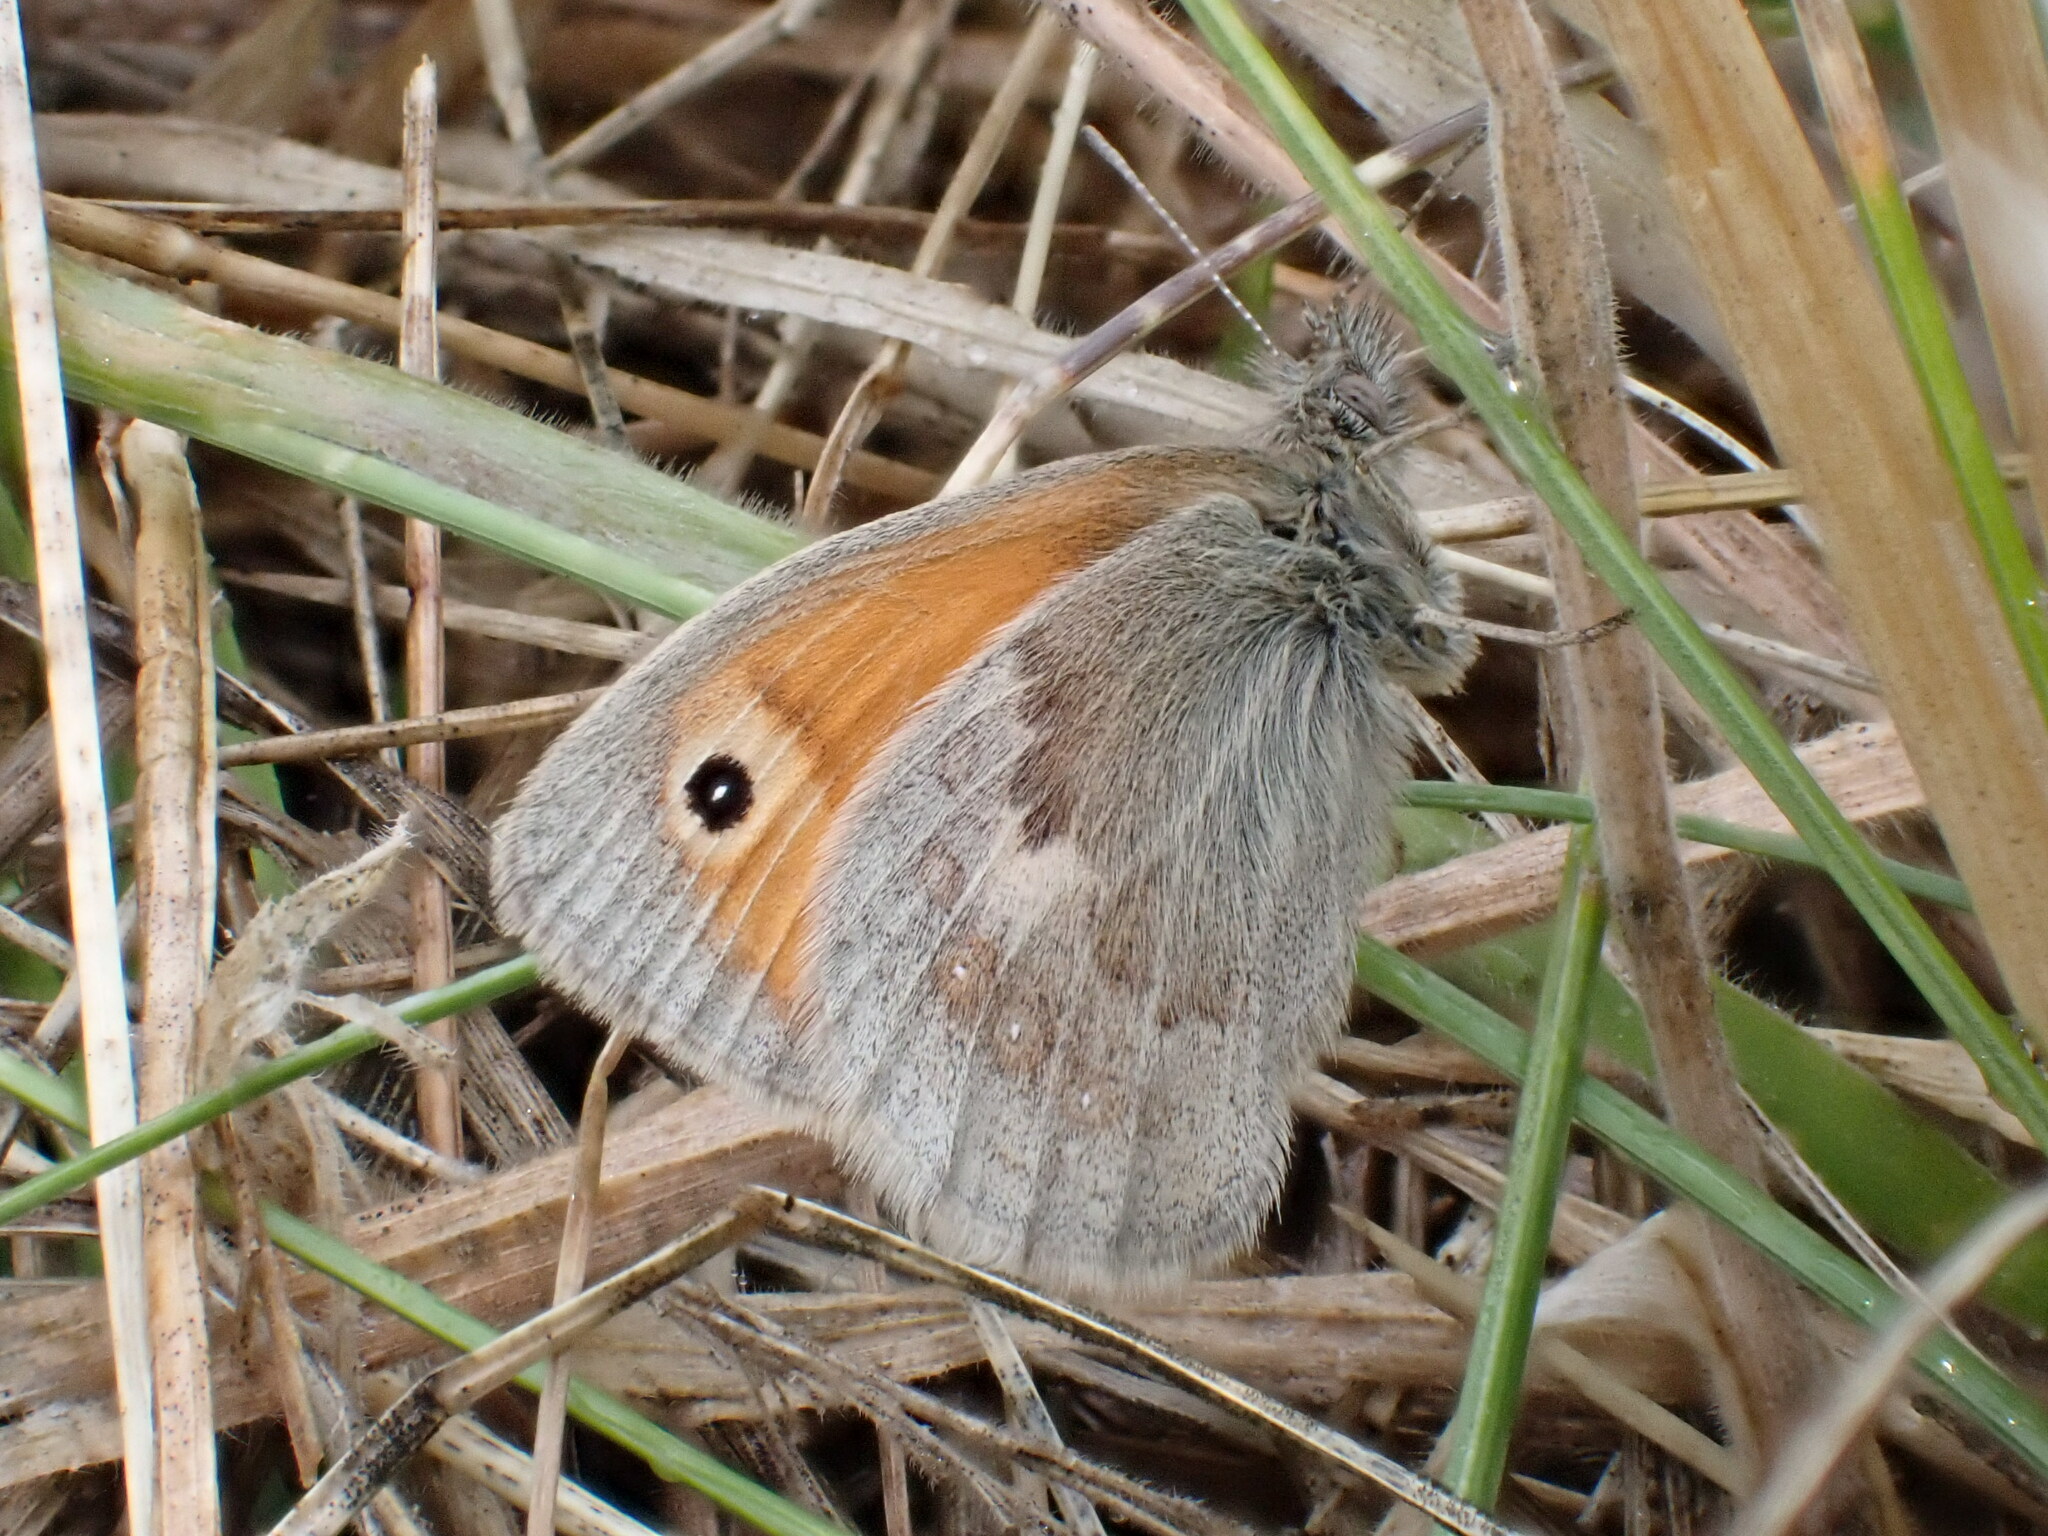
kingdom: Animalia
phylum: Arthropoda
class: Insecta
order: Lepidoptera
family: Nymphalidae
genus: Coenonympha
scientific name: Coenonympha pamphilus
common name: Small heath
